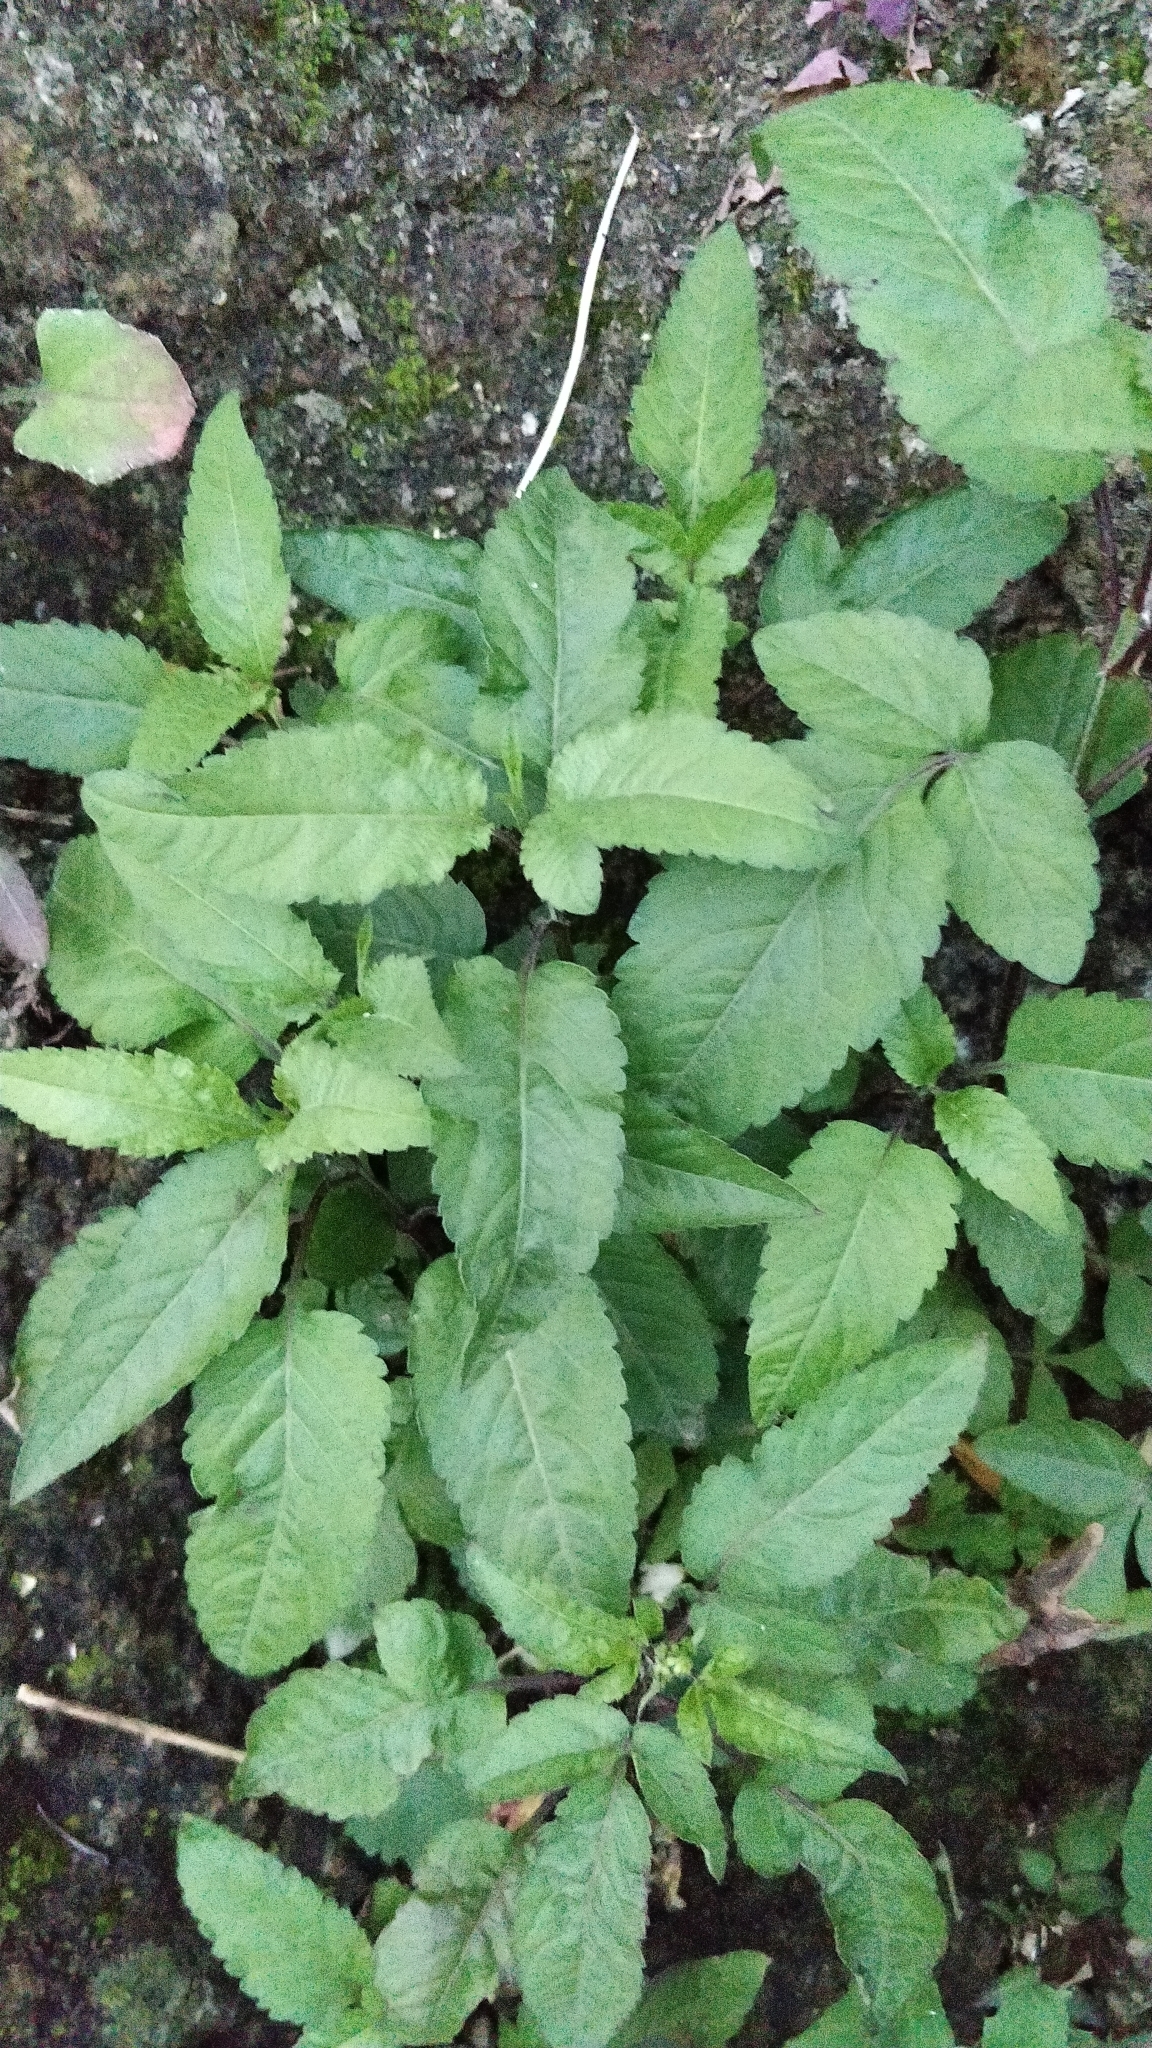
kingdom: Plantae
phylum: Tracheophyta
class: Magnoliopsida
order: Asterales
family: Asteraceae
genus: Bidens
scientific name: Bidens pilosa
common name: Black-jack
